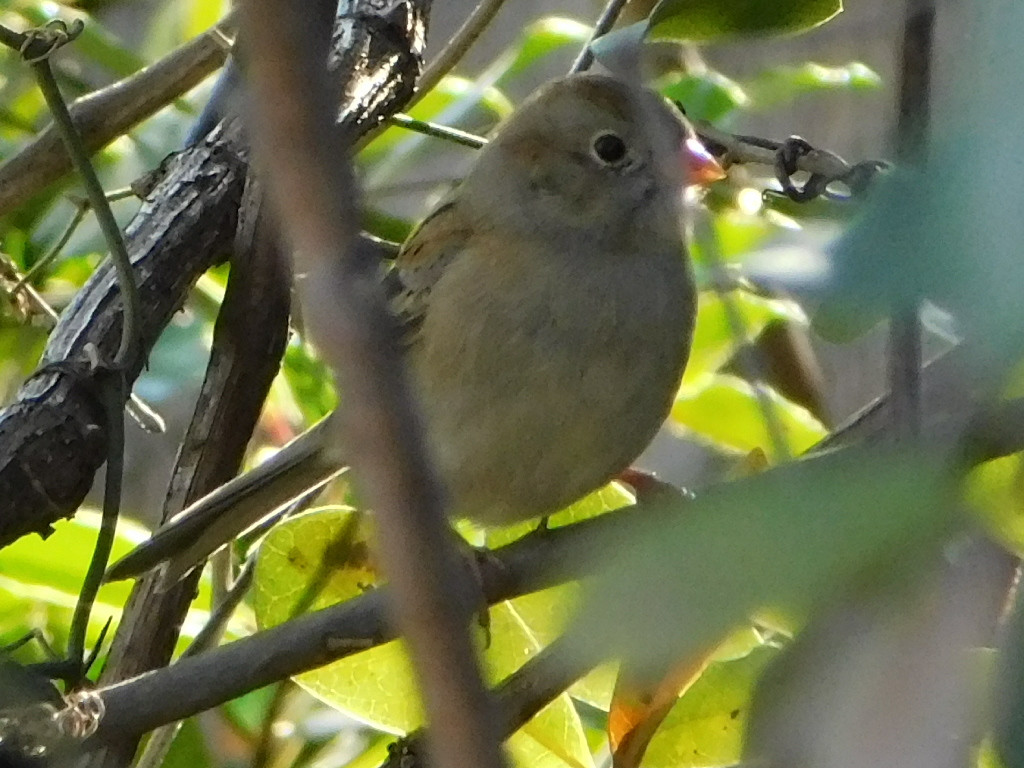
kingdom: Animalia
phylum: Chordata
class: Aves
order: Passeriformes
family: Passerellidae
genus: Spizella
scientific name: Spizella pusilla
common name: Field sparrow
